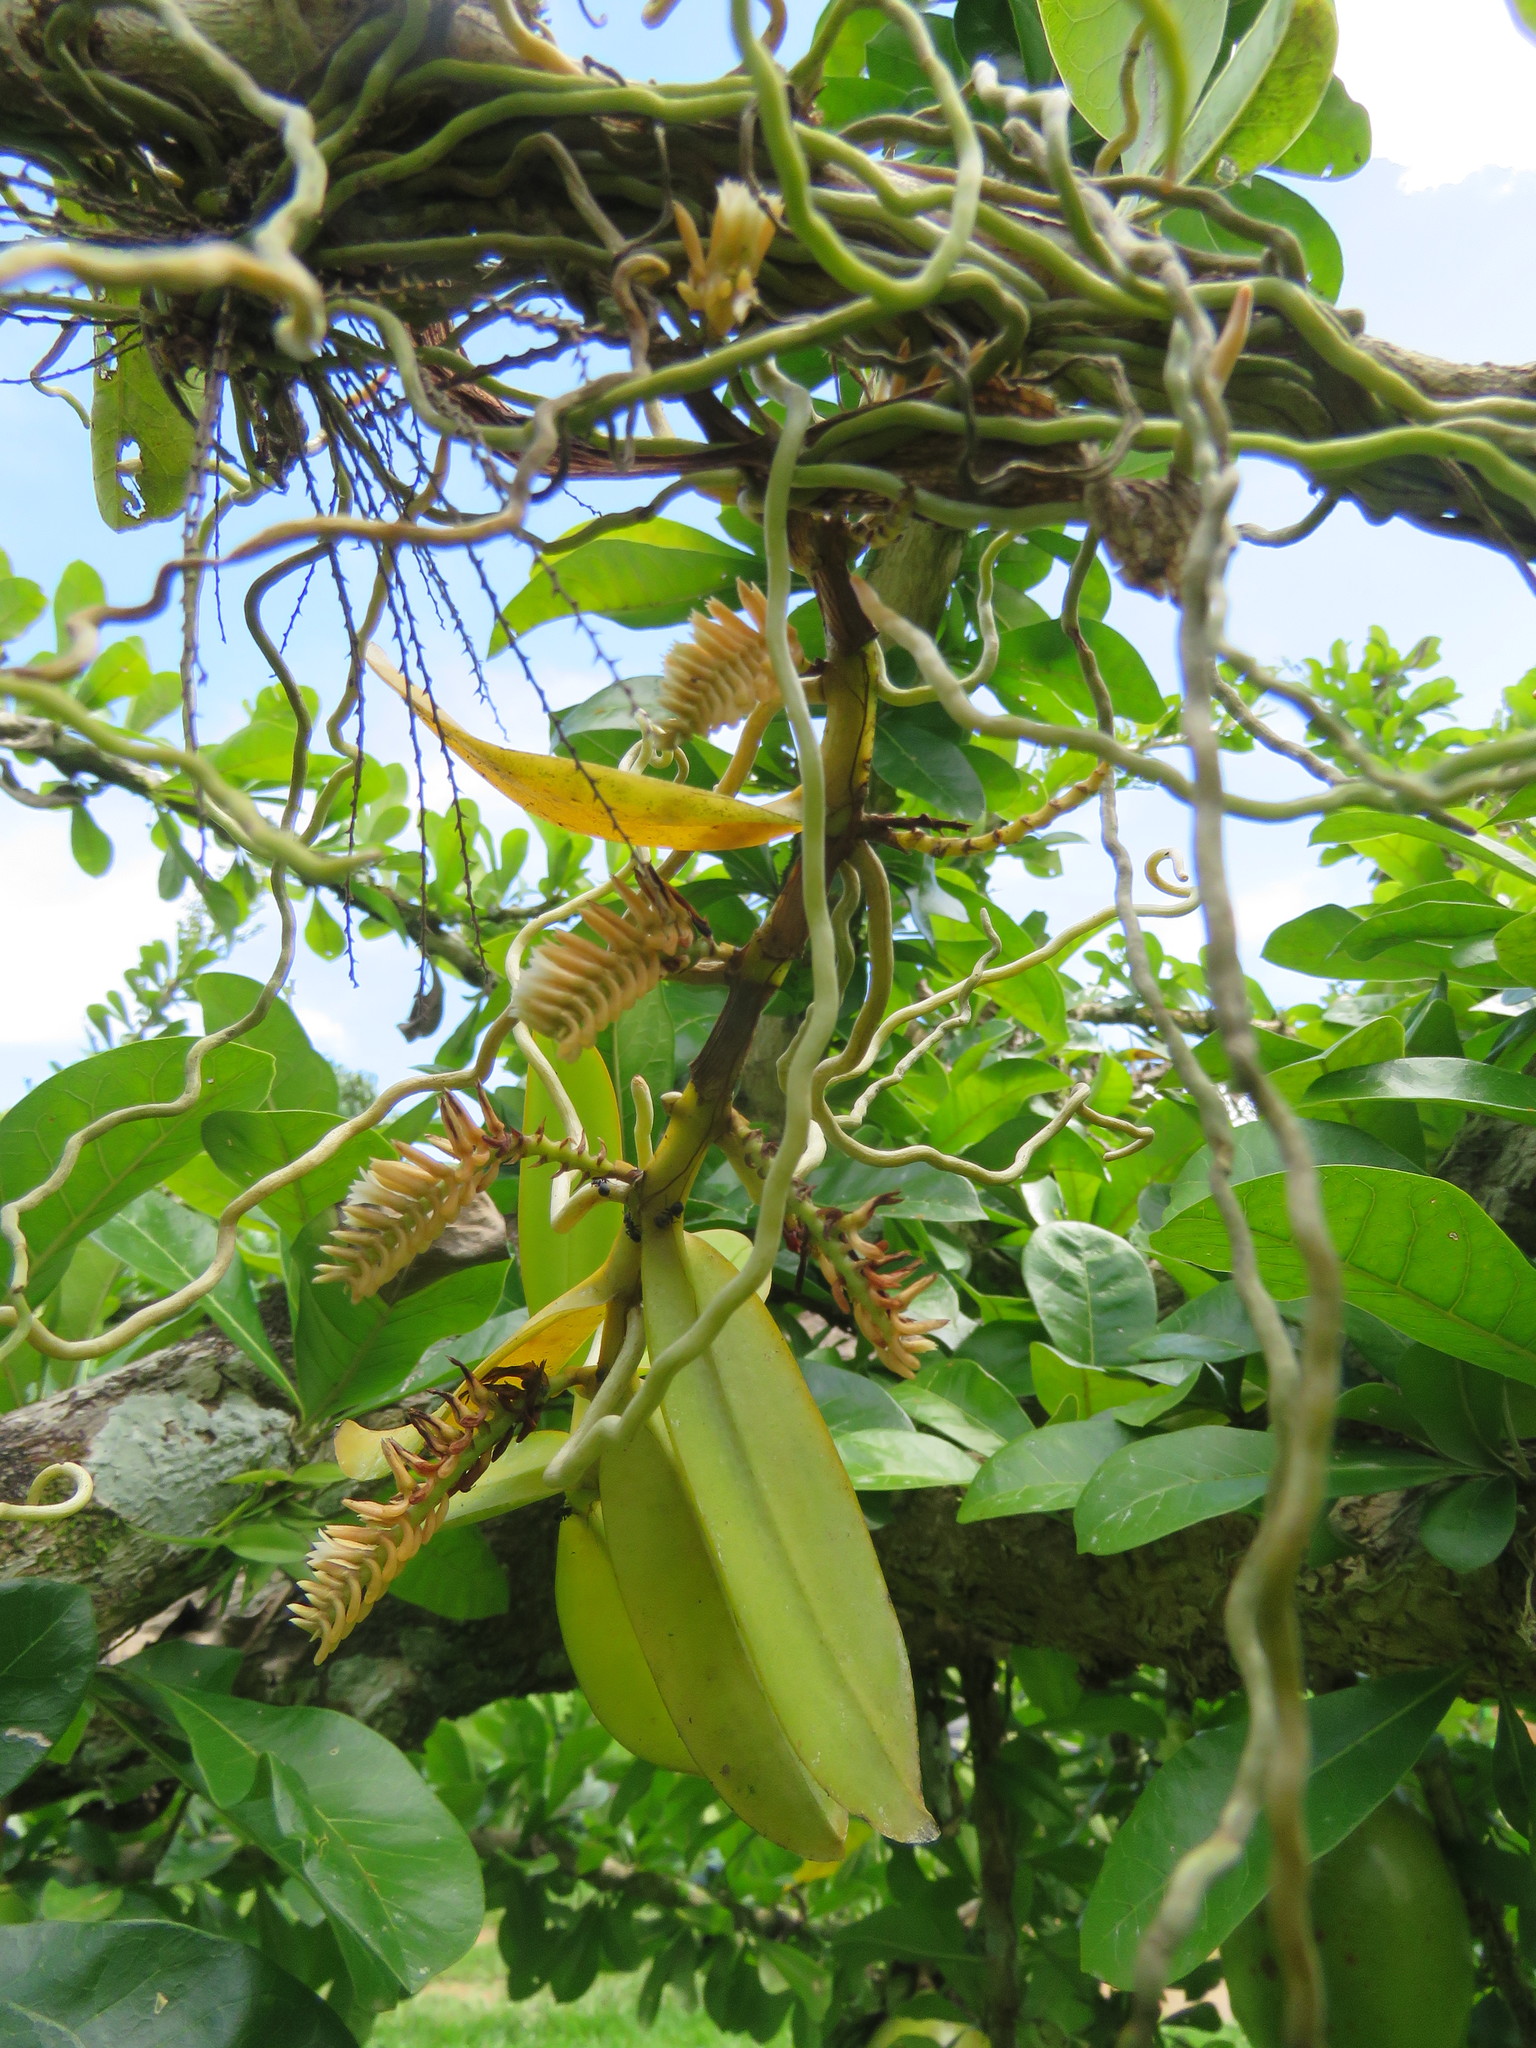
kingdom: Plantae
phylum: Tracheophyta
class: Liliopsida
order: Asparagales
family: Orchidaceae
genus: Campylocentrum
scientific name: Campylocentrum aromaticum
